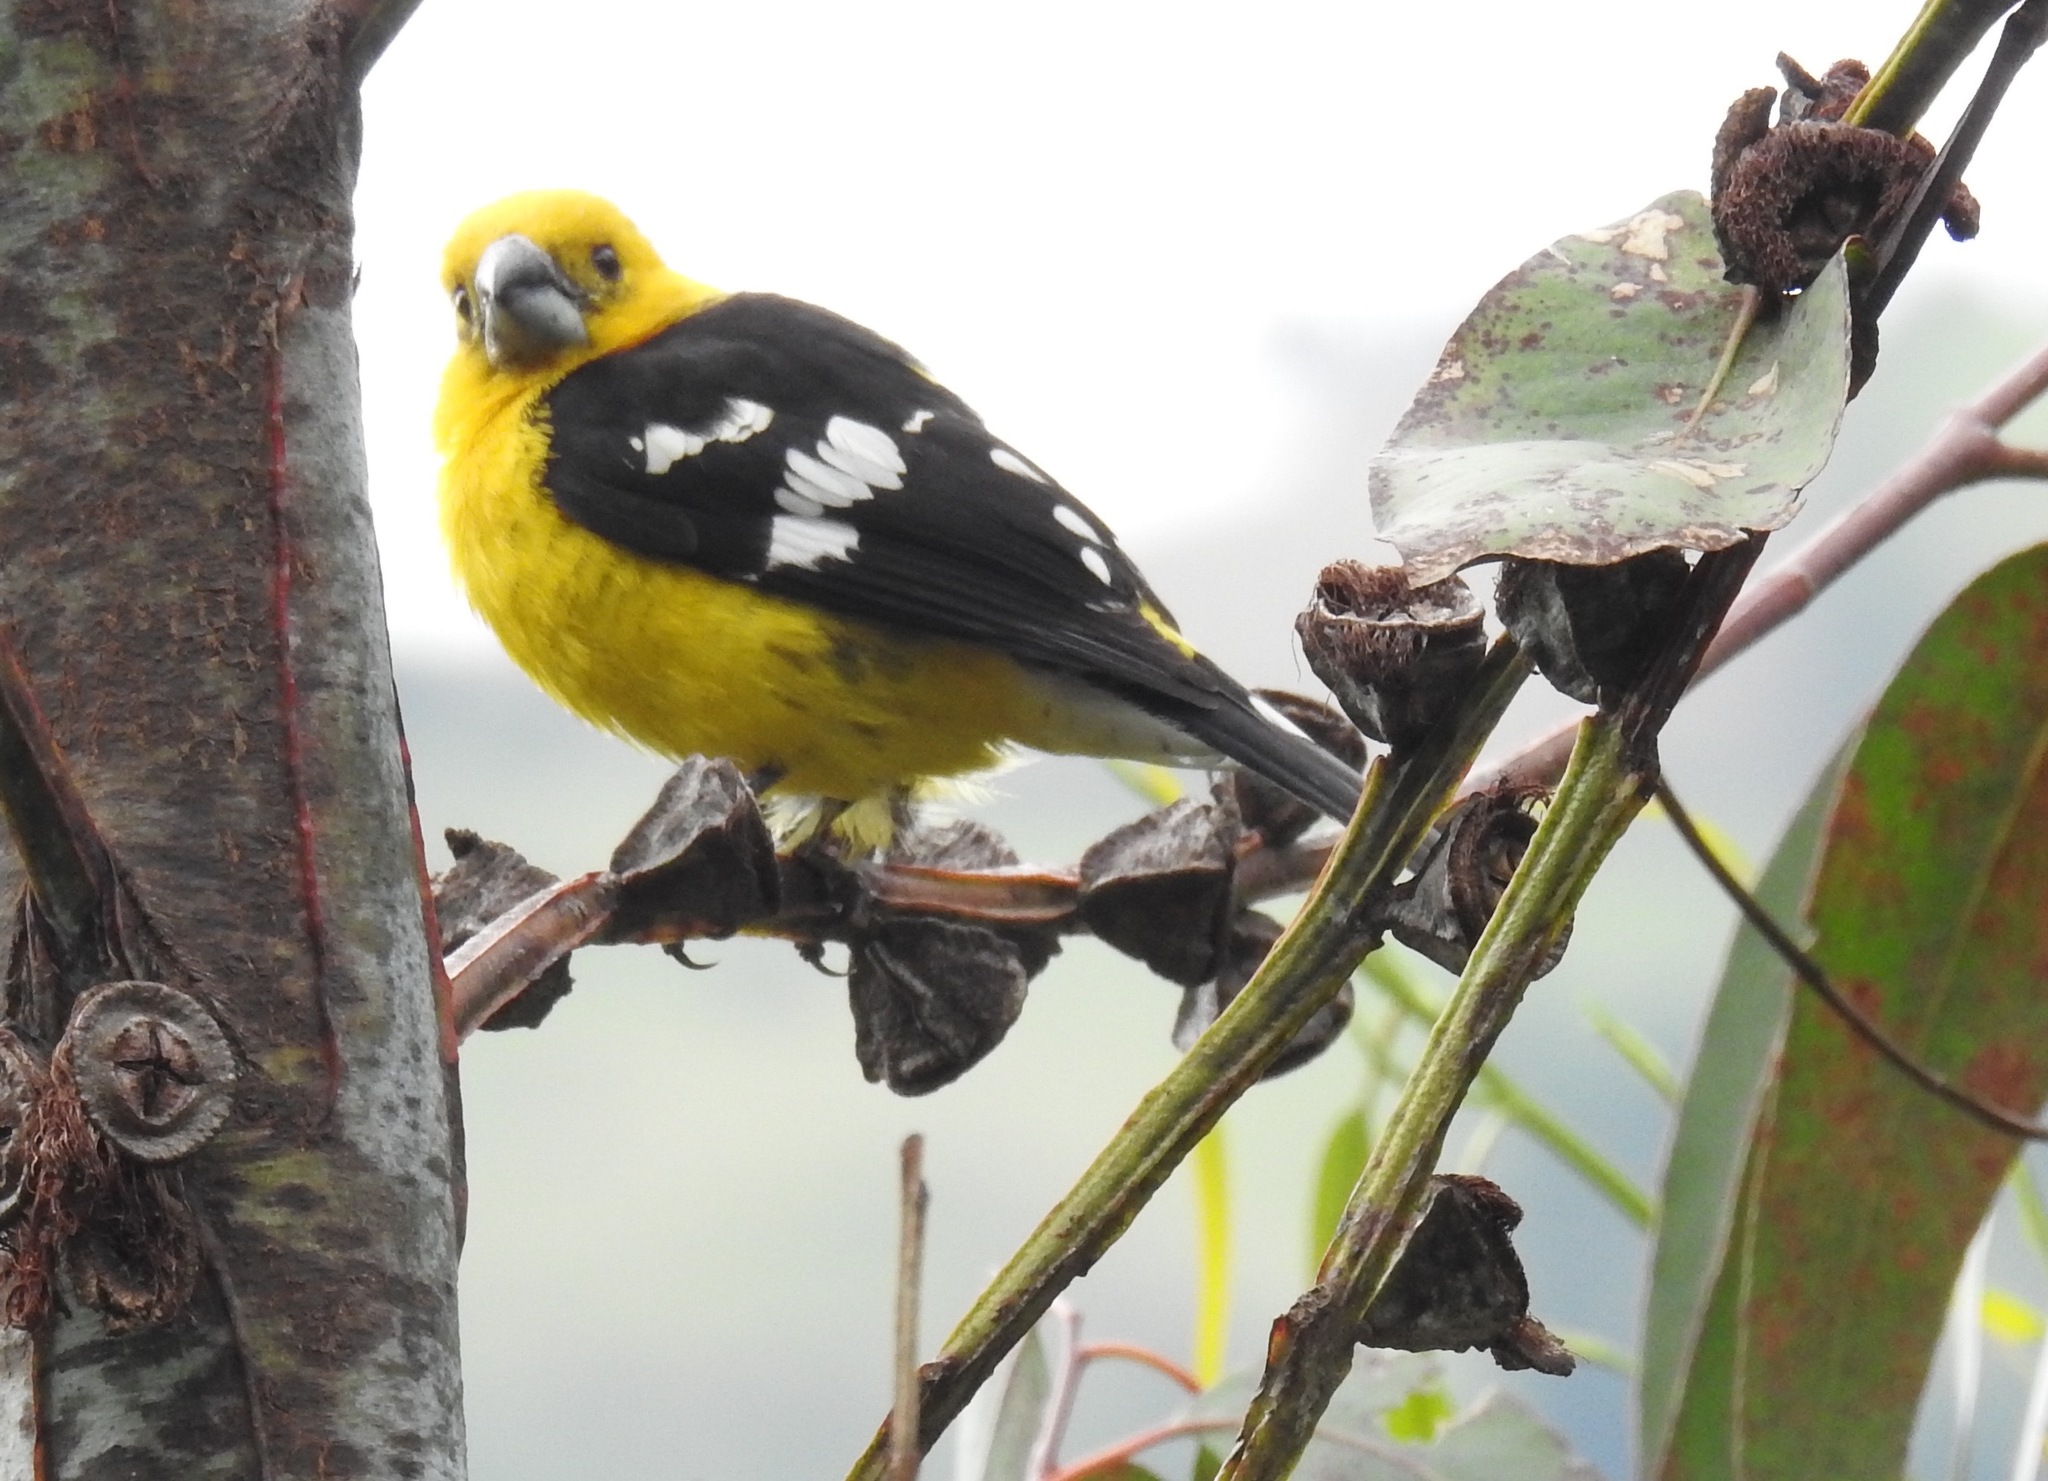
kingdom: Animalia
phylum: Chordata
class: Aves
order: Passeriformes
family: Cardinalidae
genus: Pheucticus
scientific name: Pheucticus chrysogaster
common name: Golden grosbeak
